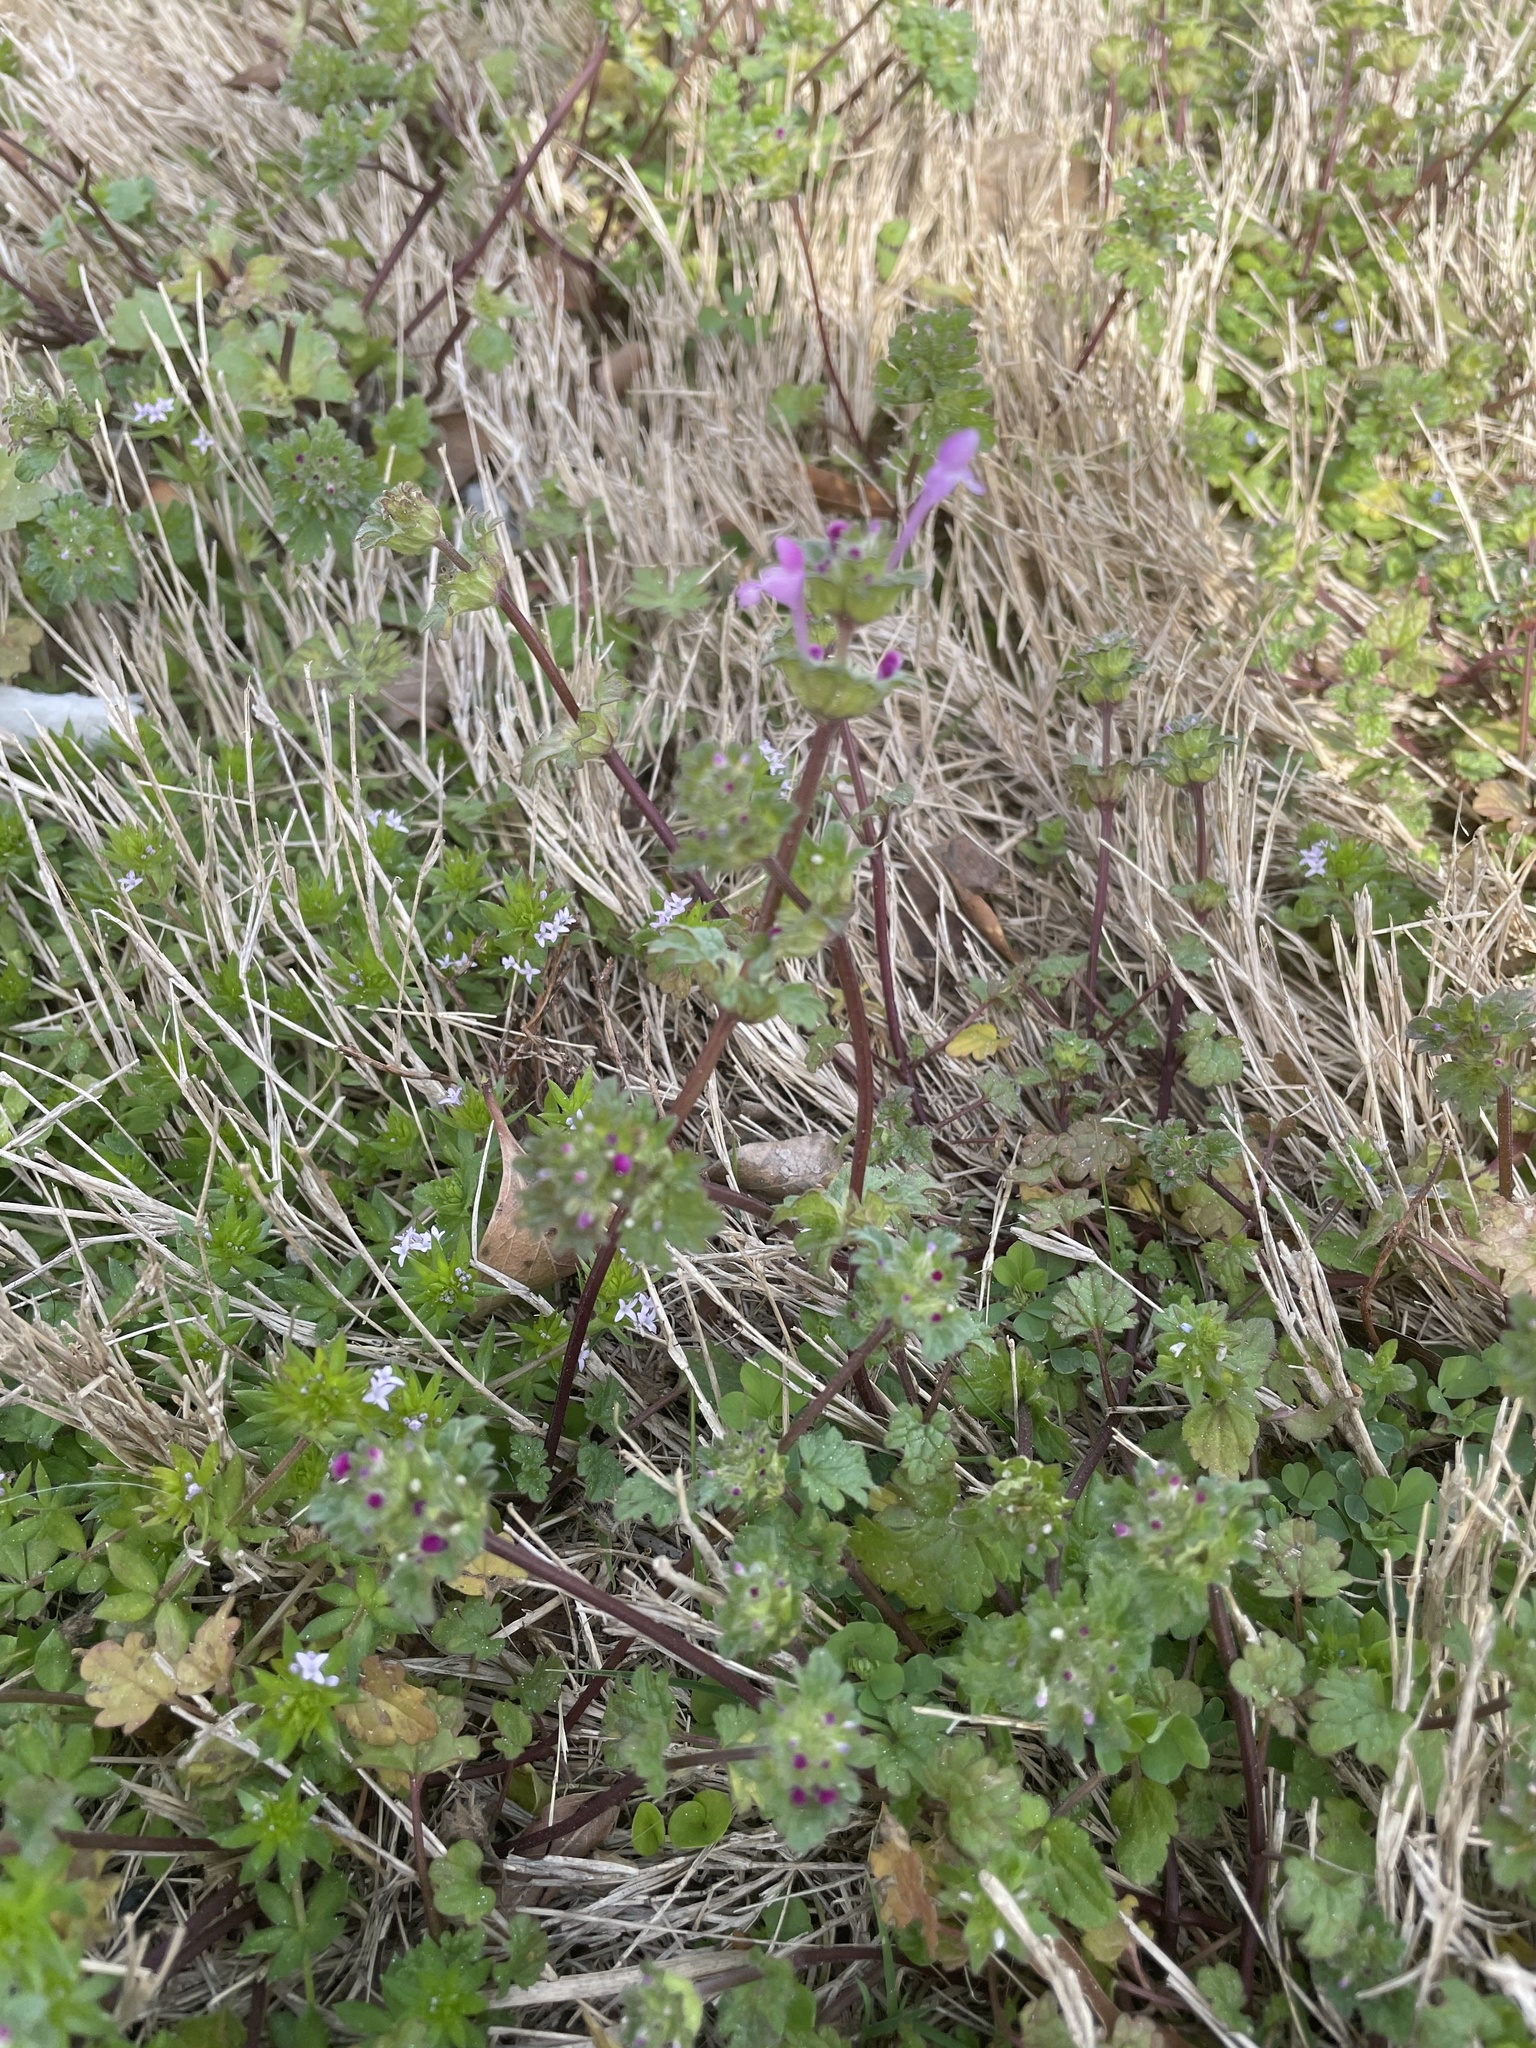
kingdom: Plantae
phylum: Tracheophyta
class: Magnoliopsida
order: Lamiales
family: Lamiaceae
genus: Lamium
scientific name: Lamium amplexicaule
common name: Henbit dead-nettle
